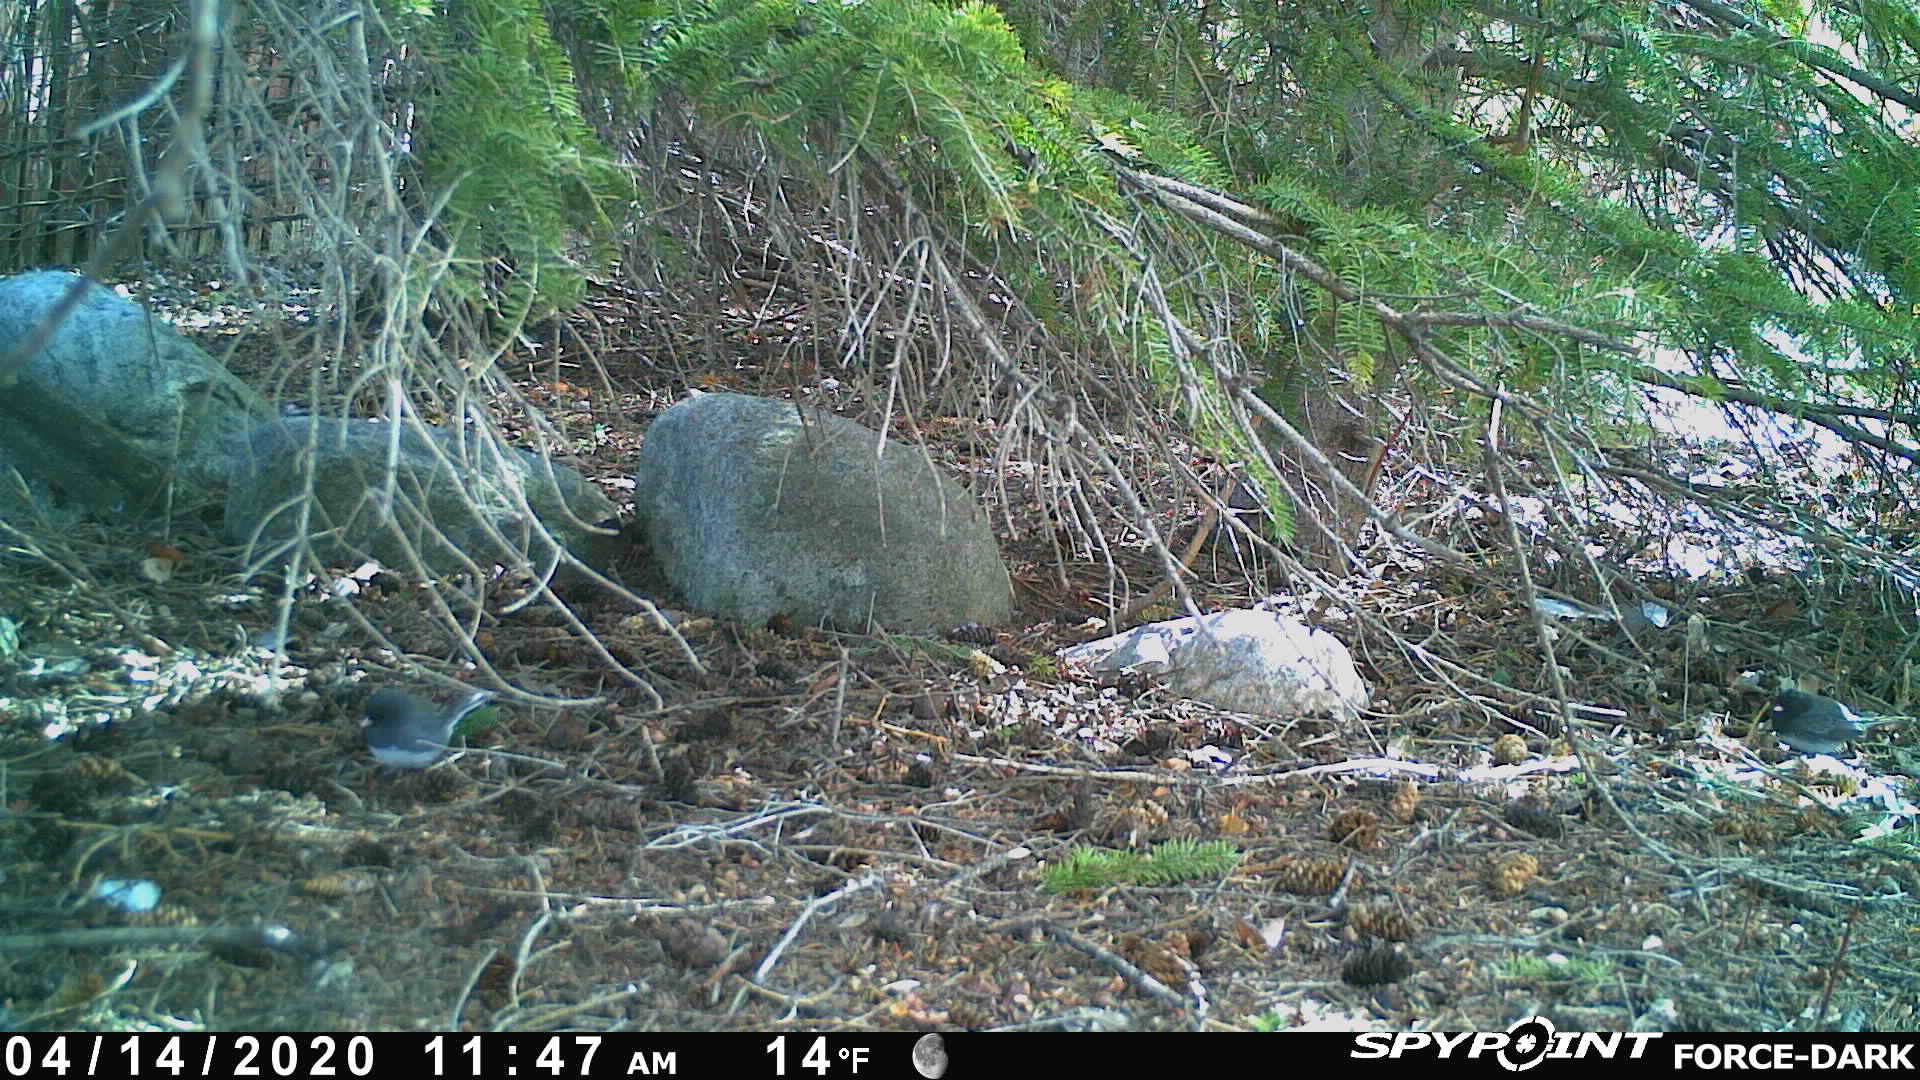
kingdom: Animalia
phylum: Chordata
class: Aves
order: Passeriformes
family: Passerellidae
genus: Junco
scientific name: Junco hyemalis
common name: Dark-eyed junco
